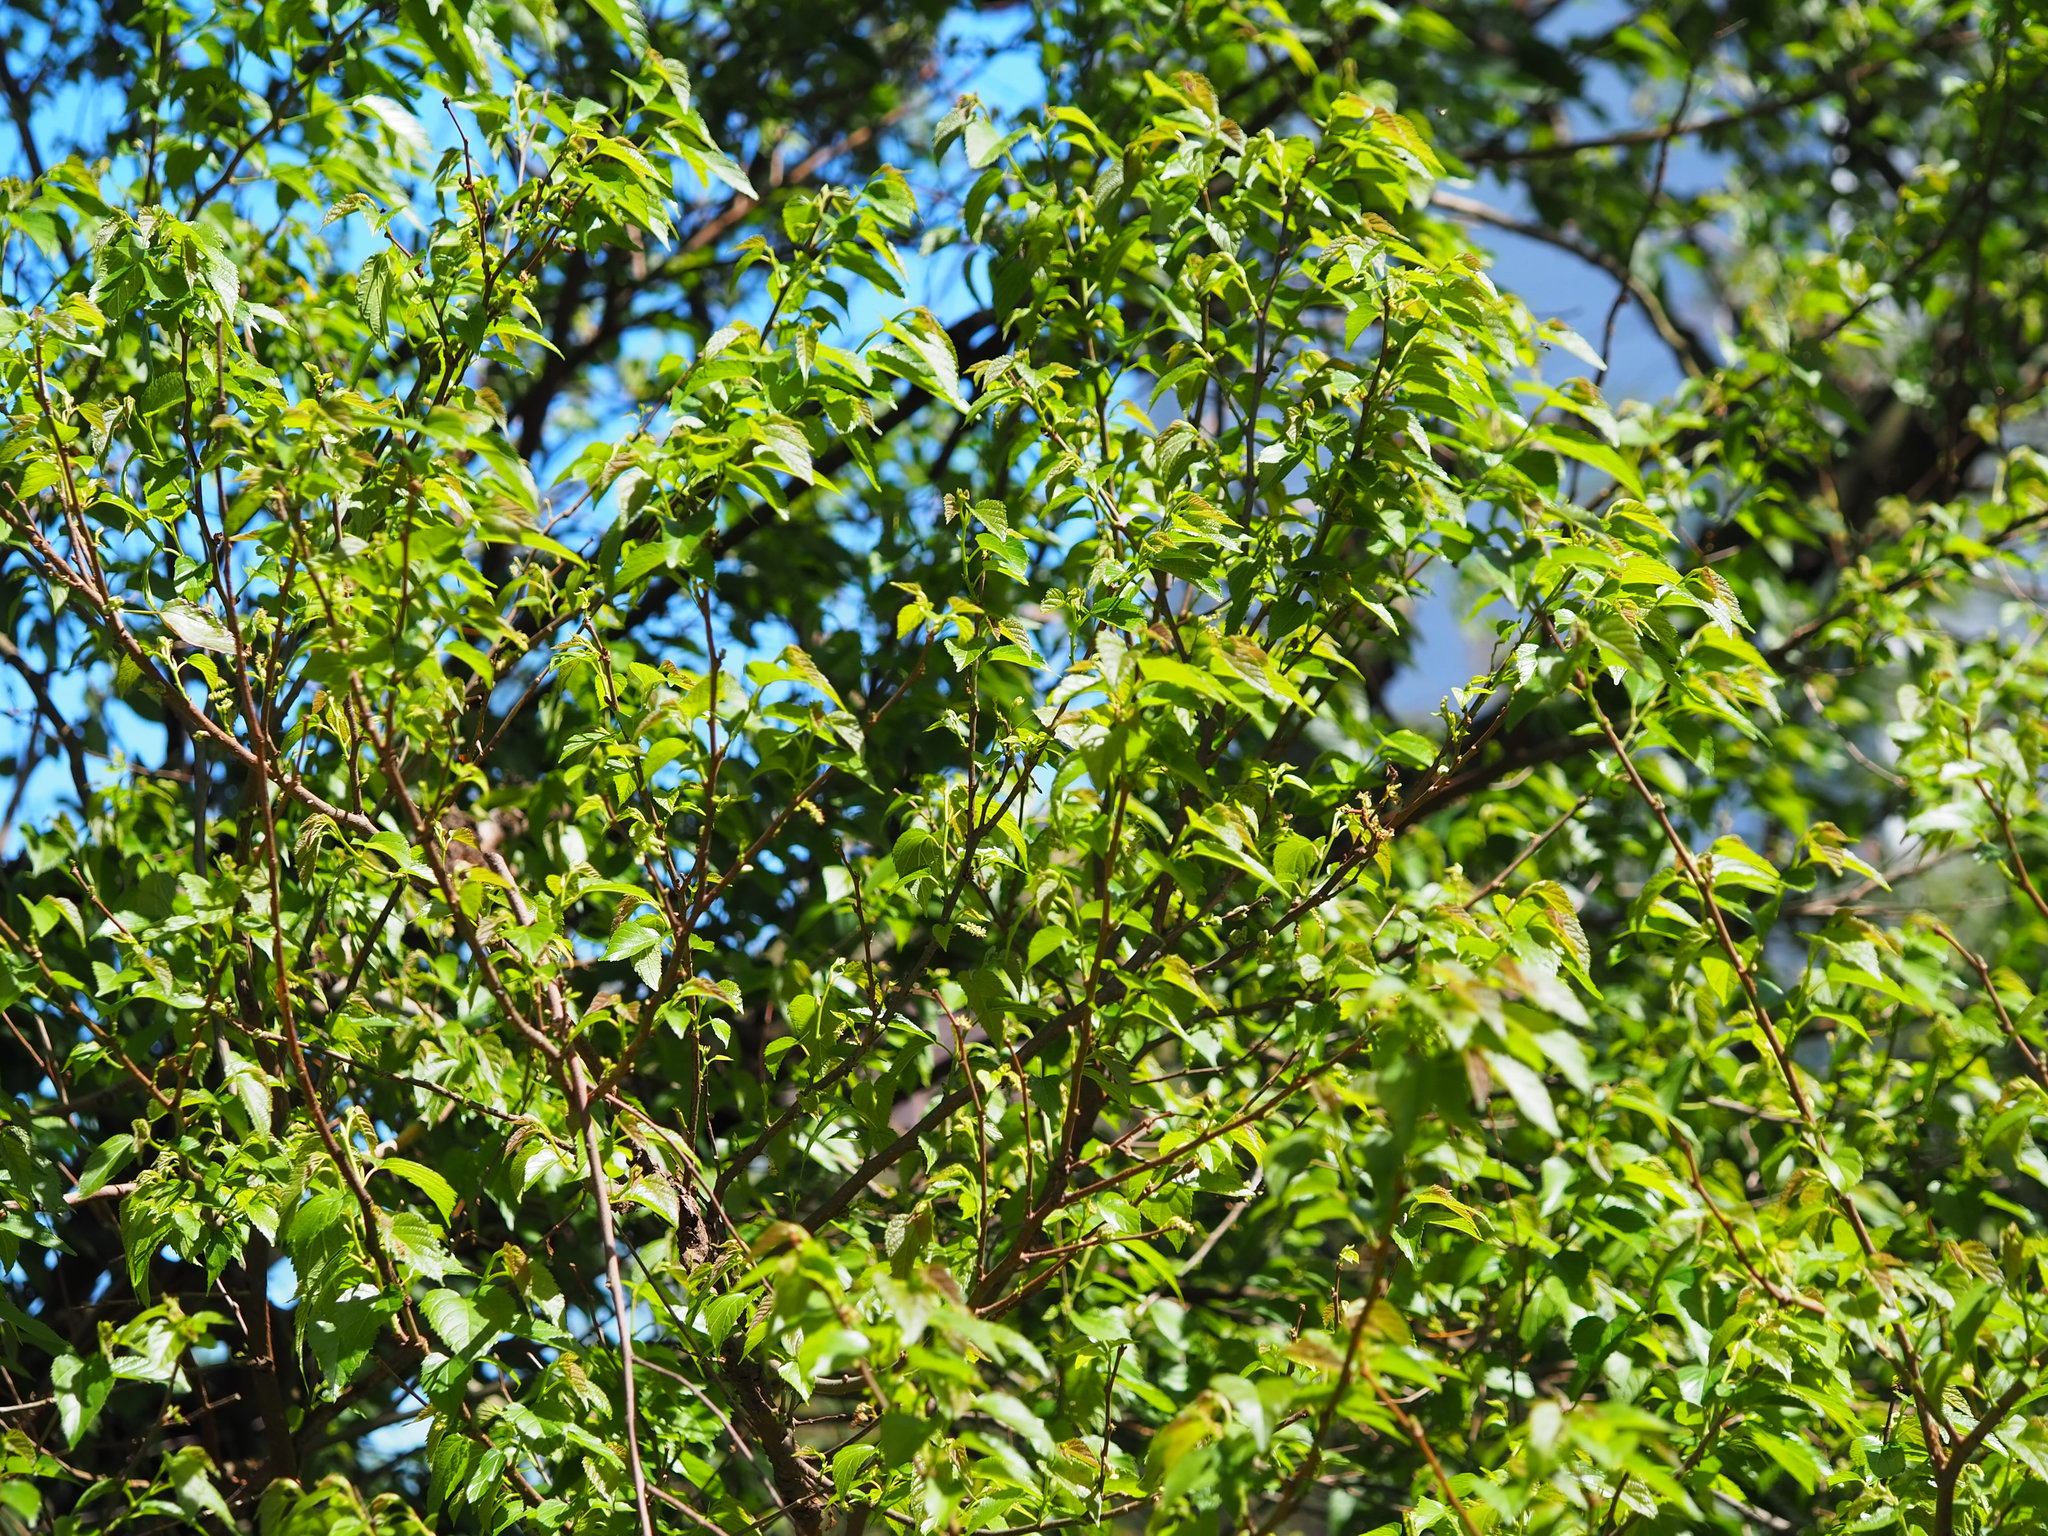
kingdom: Plantae
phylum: Tracheophyta
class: Magnoliopsida
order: Rosales
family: Moraceae
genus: Morus
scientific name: Morus indica
